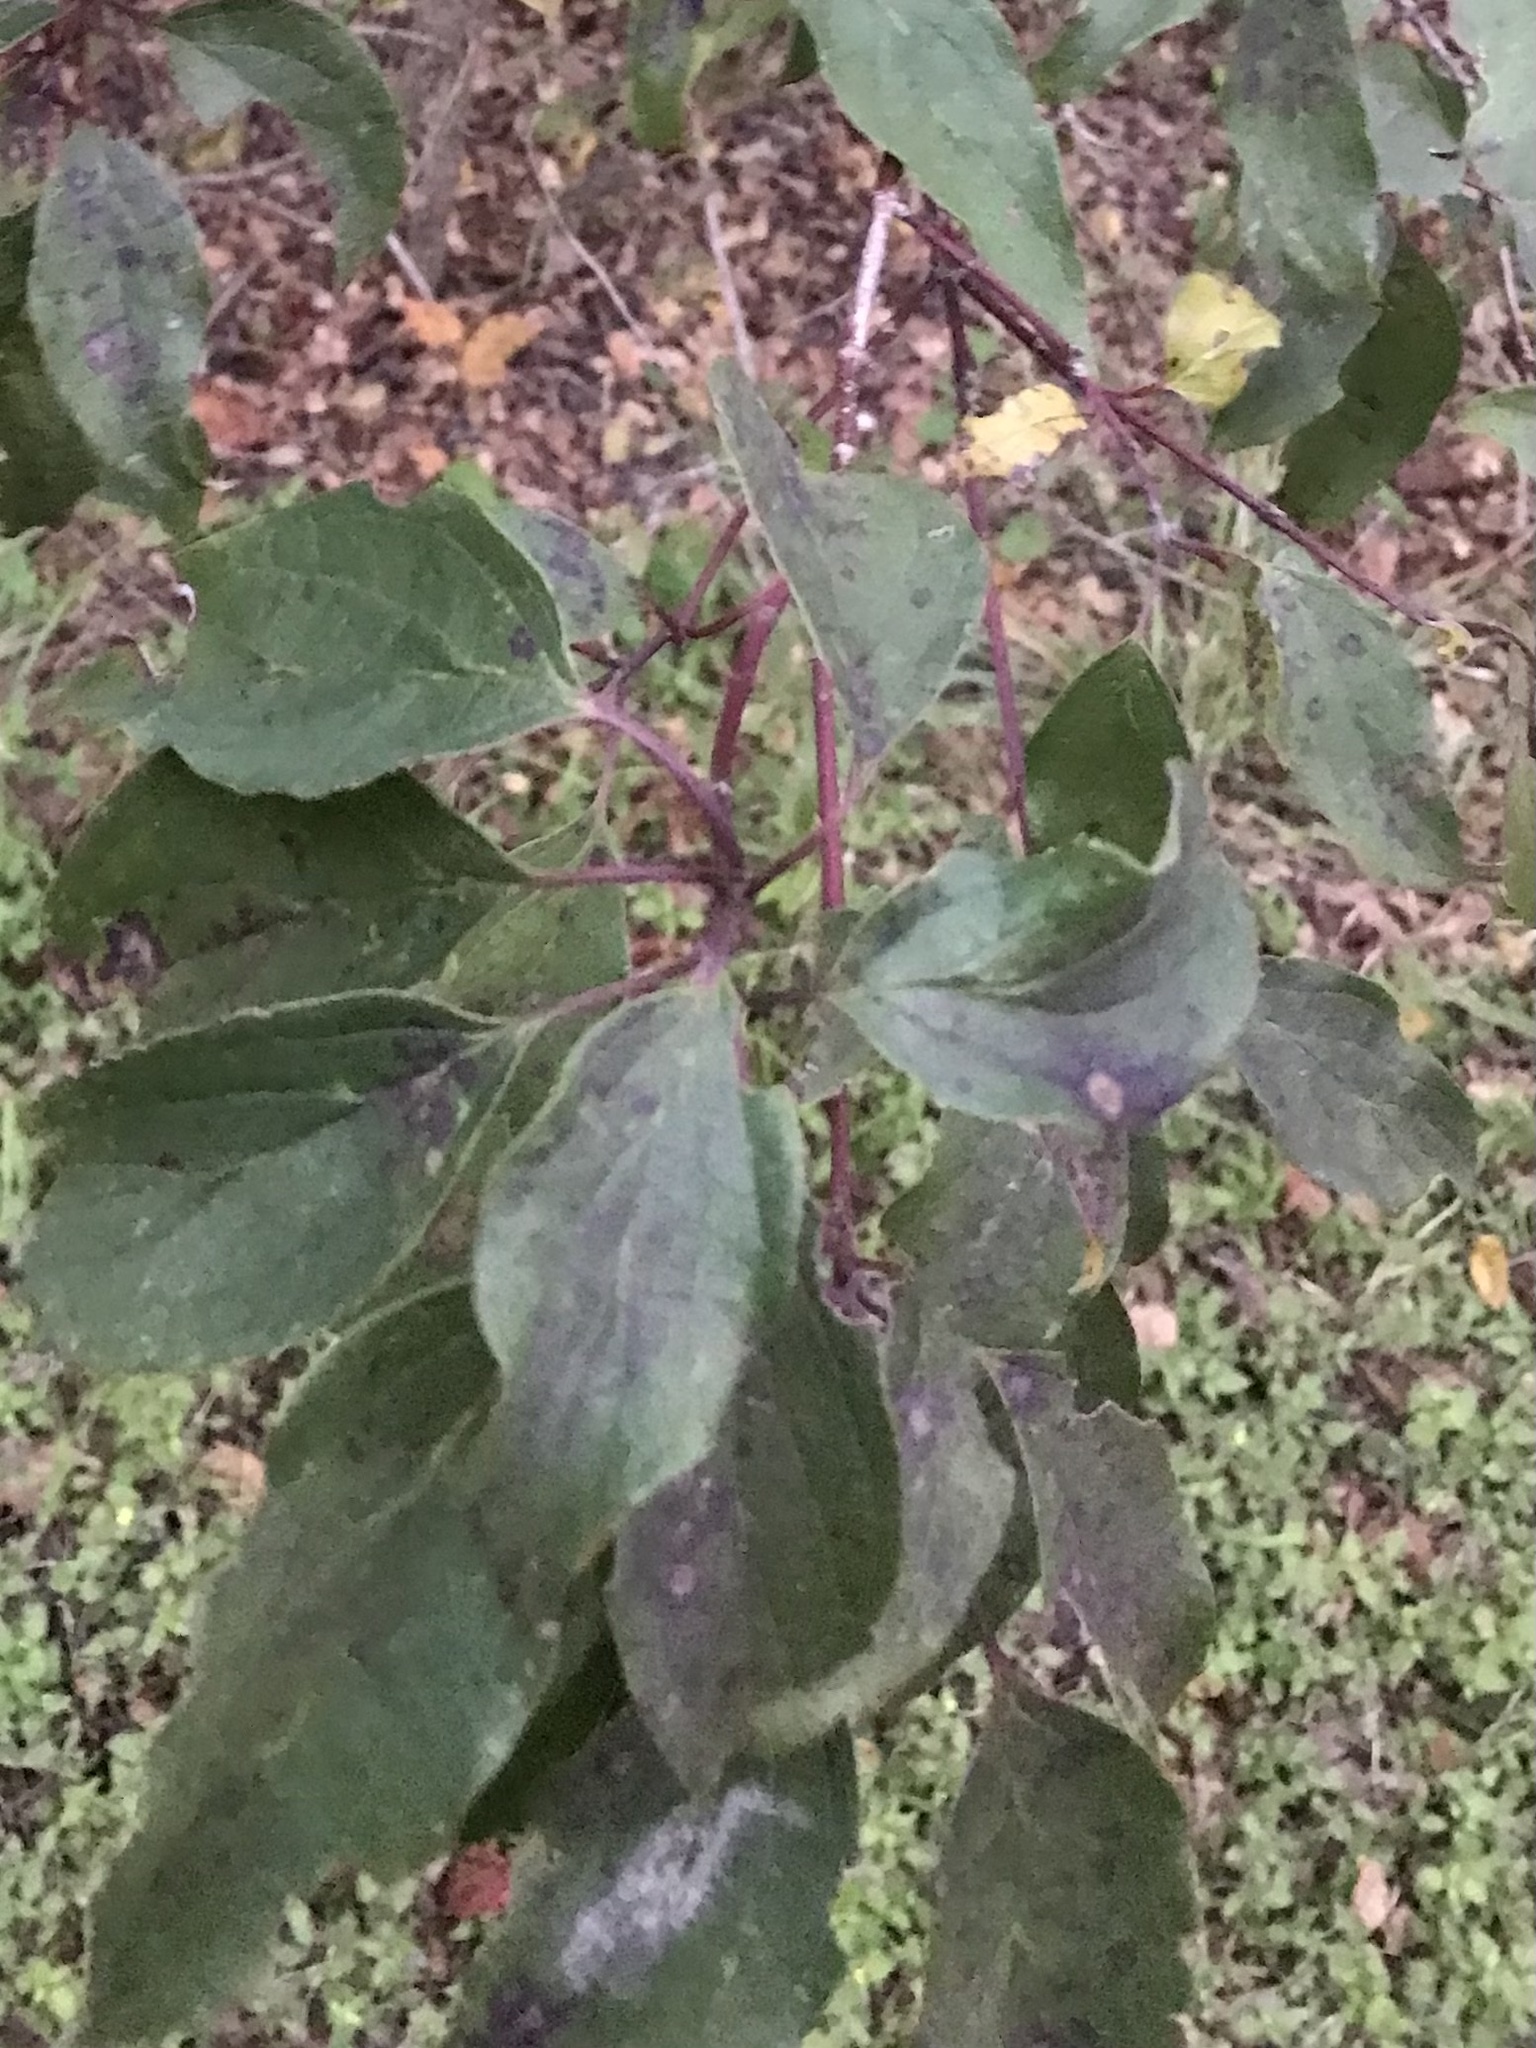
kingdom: Plantae
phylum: Tracheophyta
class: Magnoliopsida
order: Cornales
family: Cornaceae
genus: Cornus
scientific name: Cornus drummondii
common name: Rough-leaf dogwood
